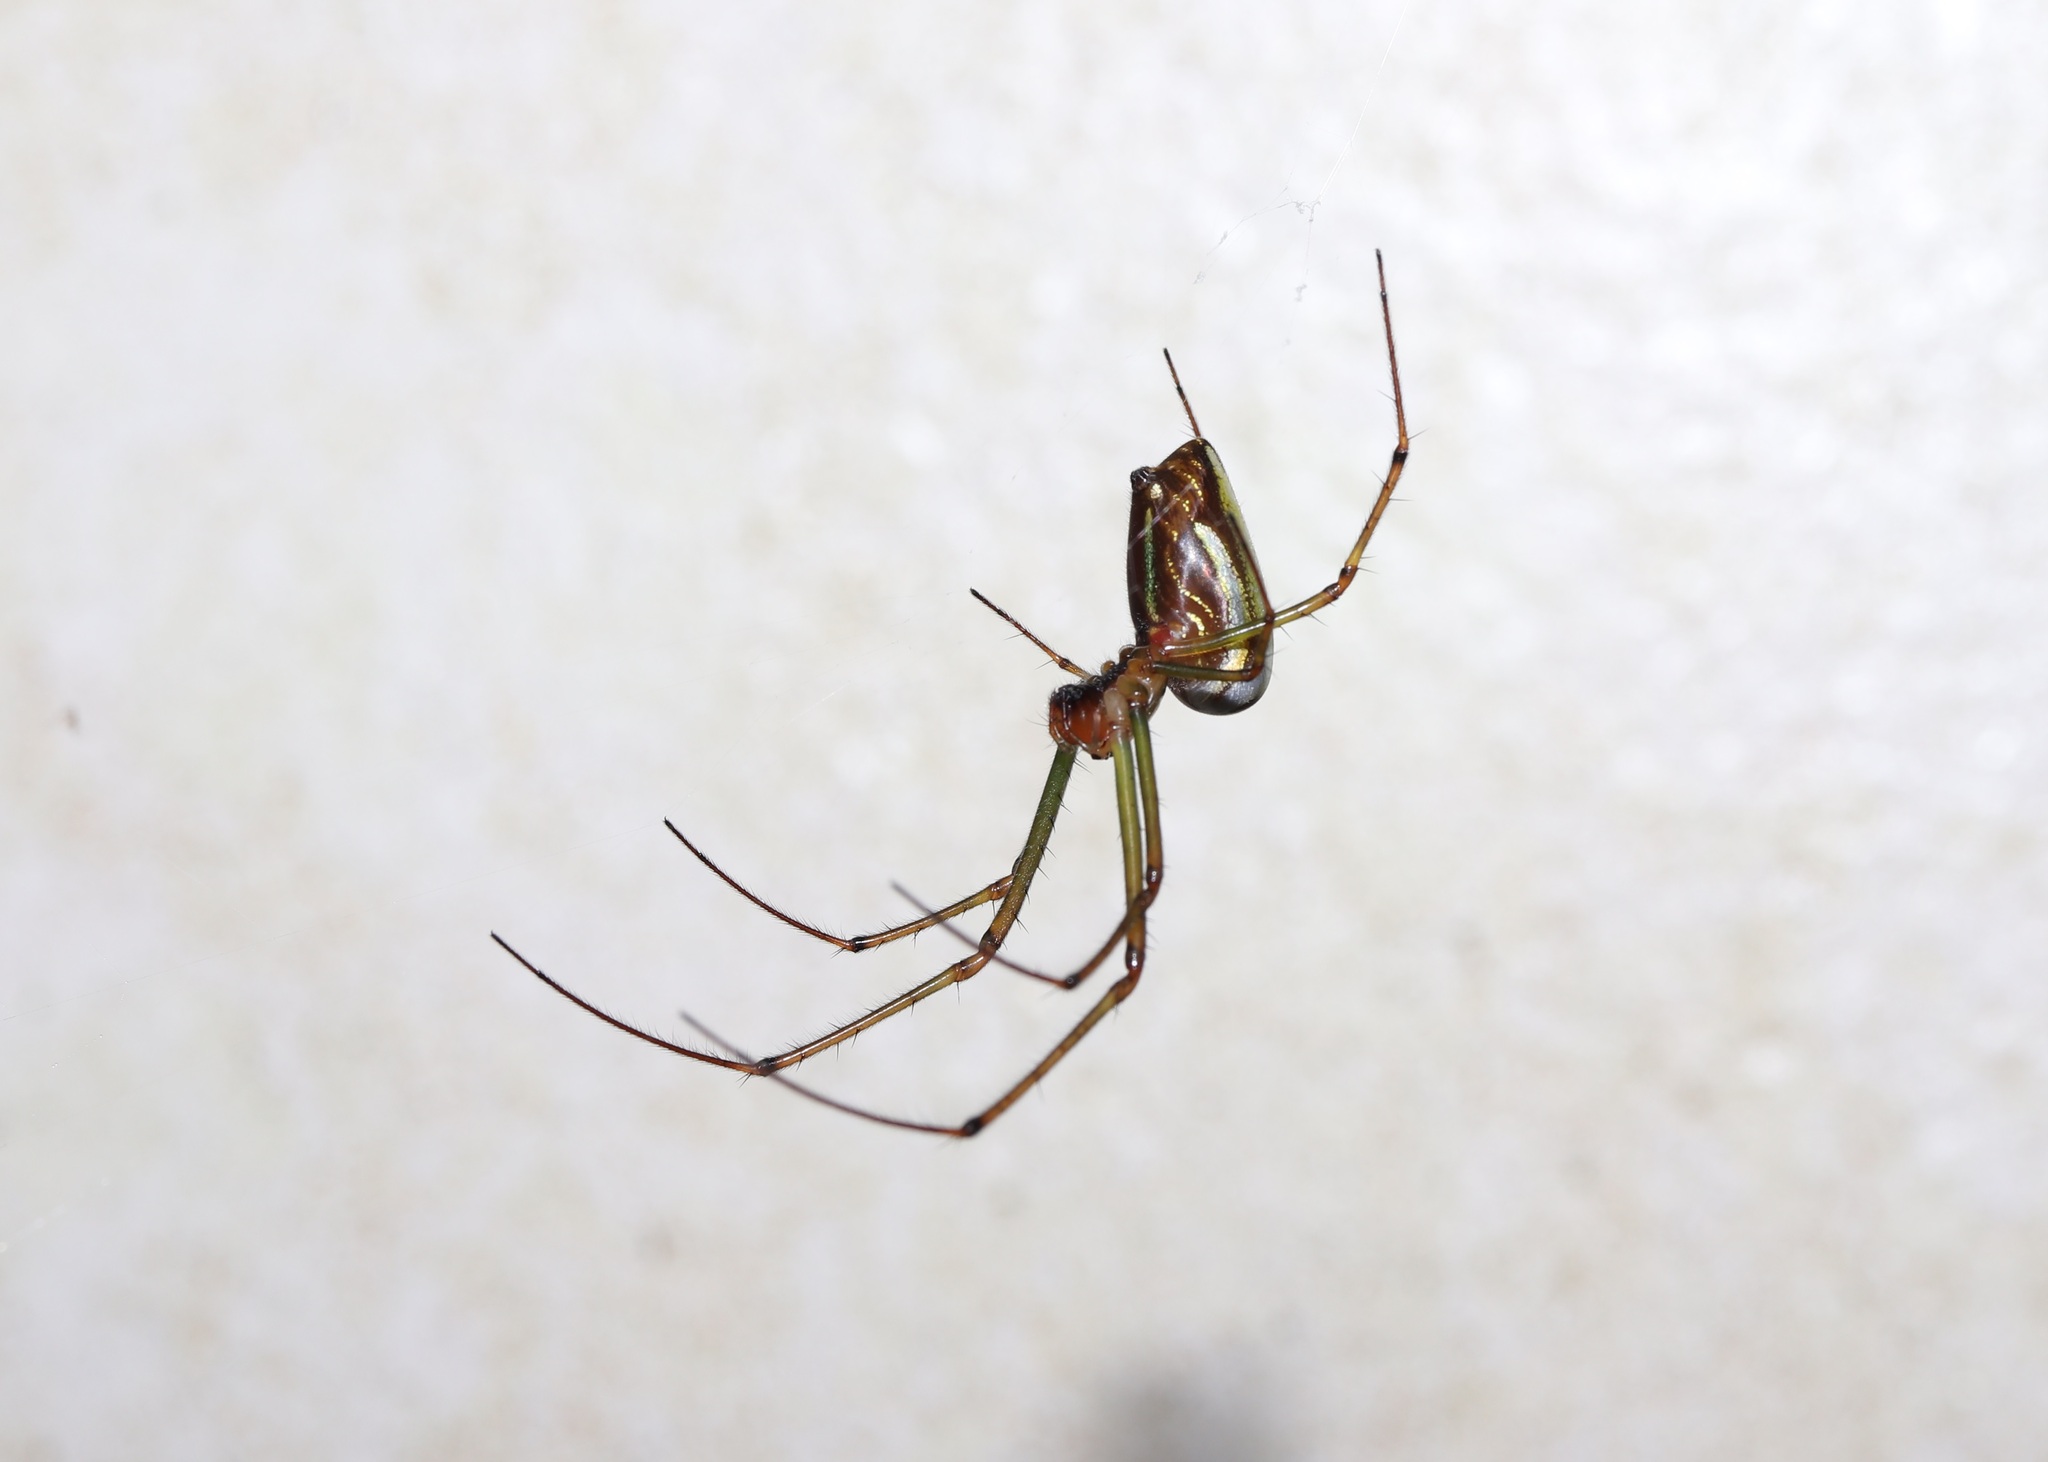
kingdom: Animalia
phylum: Arthropoda
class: Arachnida
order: Araneae
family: Tetragnathidae
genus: Leucauge
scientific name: Leucauge celebesiana
